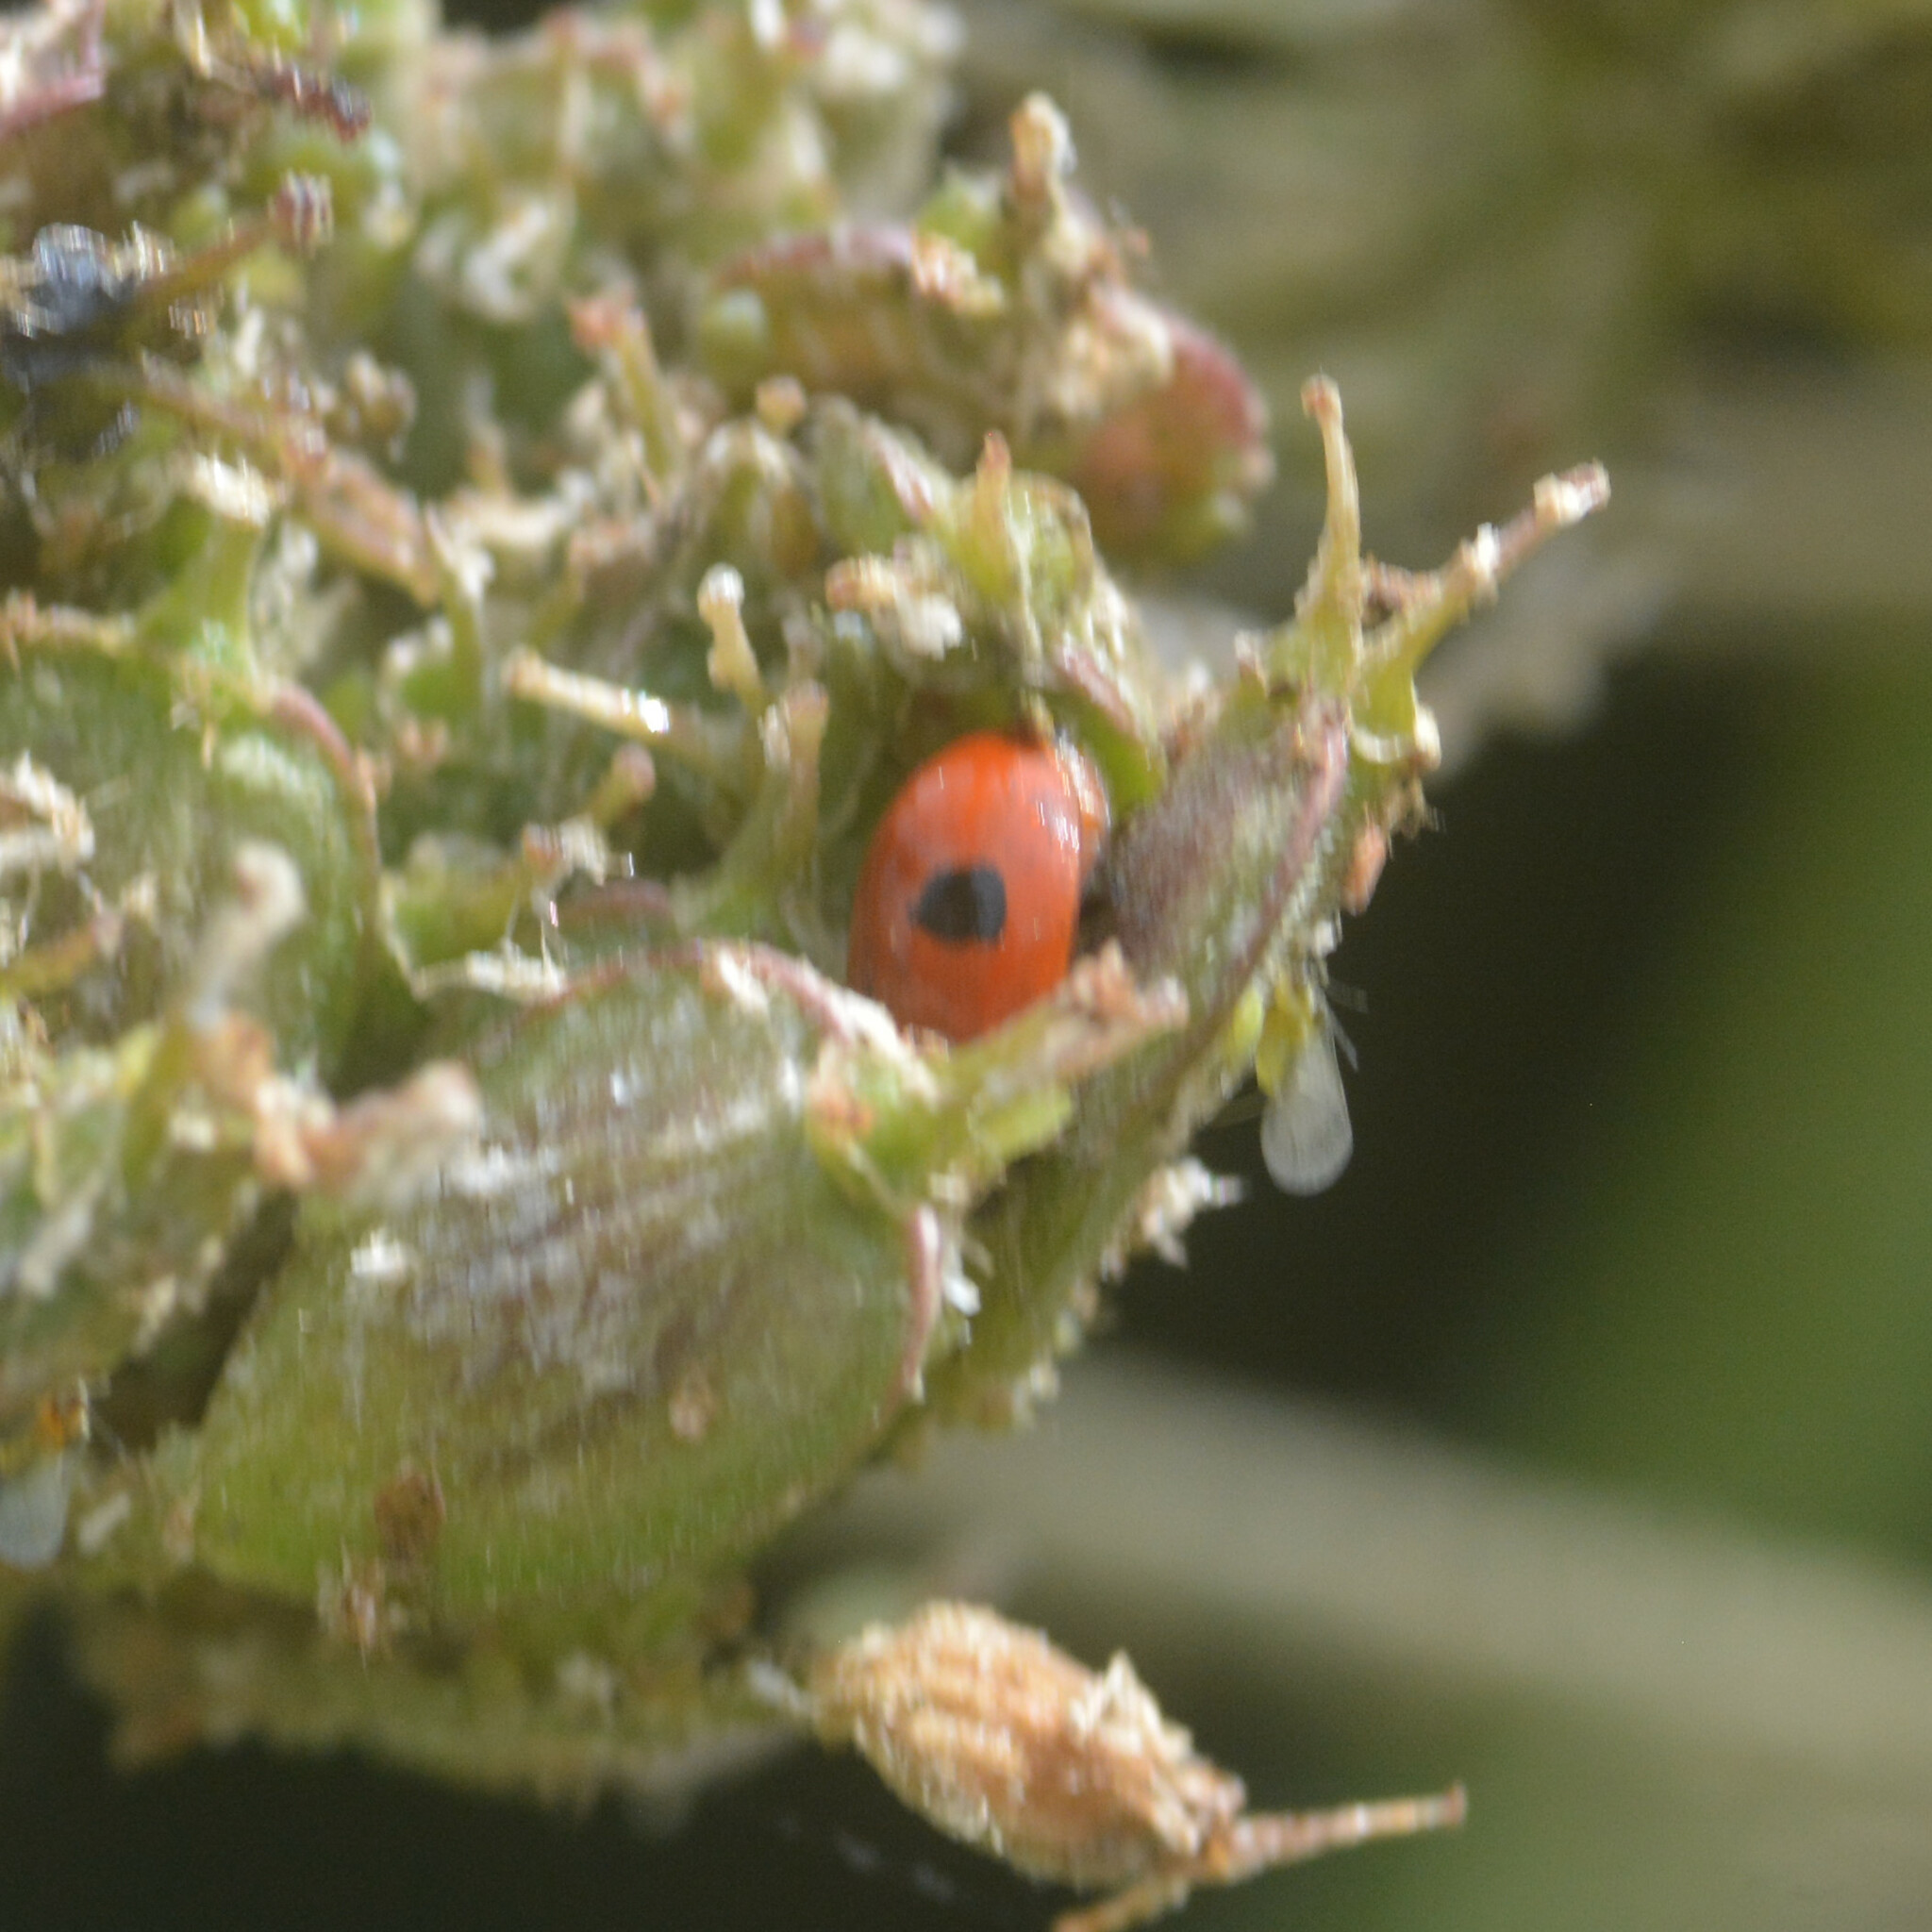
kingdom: Animalia
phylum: Arthropoda
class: Insecta
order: Coleoptera
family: Coccinellidae
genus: Adalia
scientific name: Adalia bipunctata
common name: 2-spot ladybird
